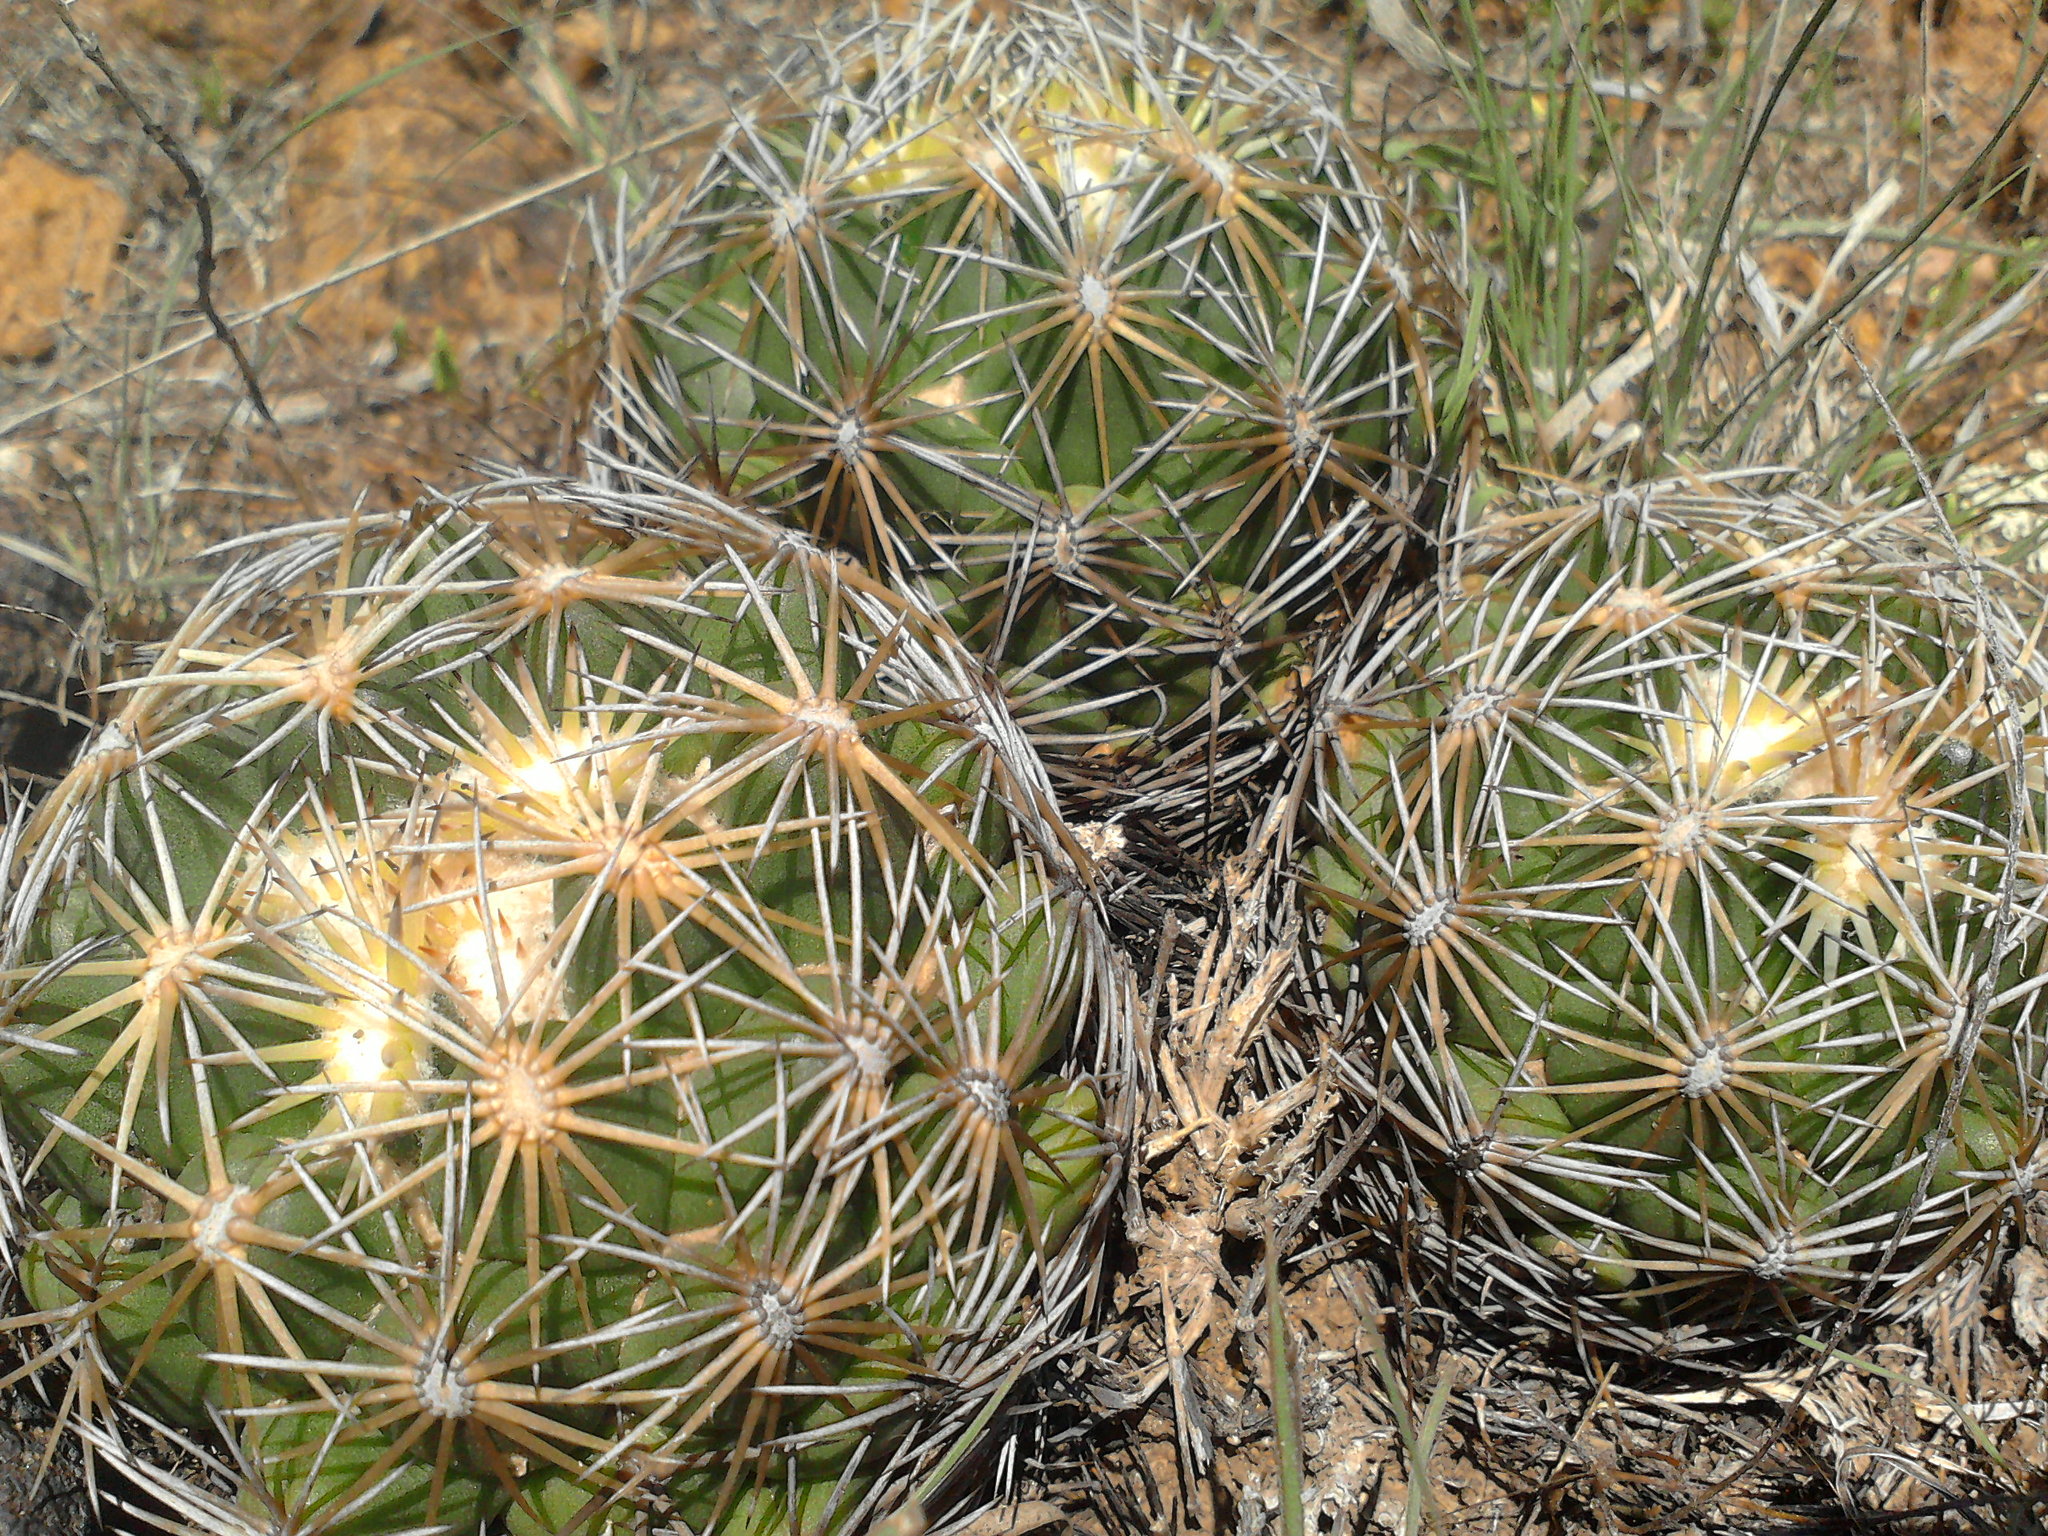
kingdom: Plantae
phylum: Tracheophyta
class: Magnoliopsida
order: Caryophyllales
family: Cactaceae
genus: Coryphantha
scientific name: Coryphantha cornifera
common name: Rhinoceros cactus
